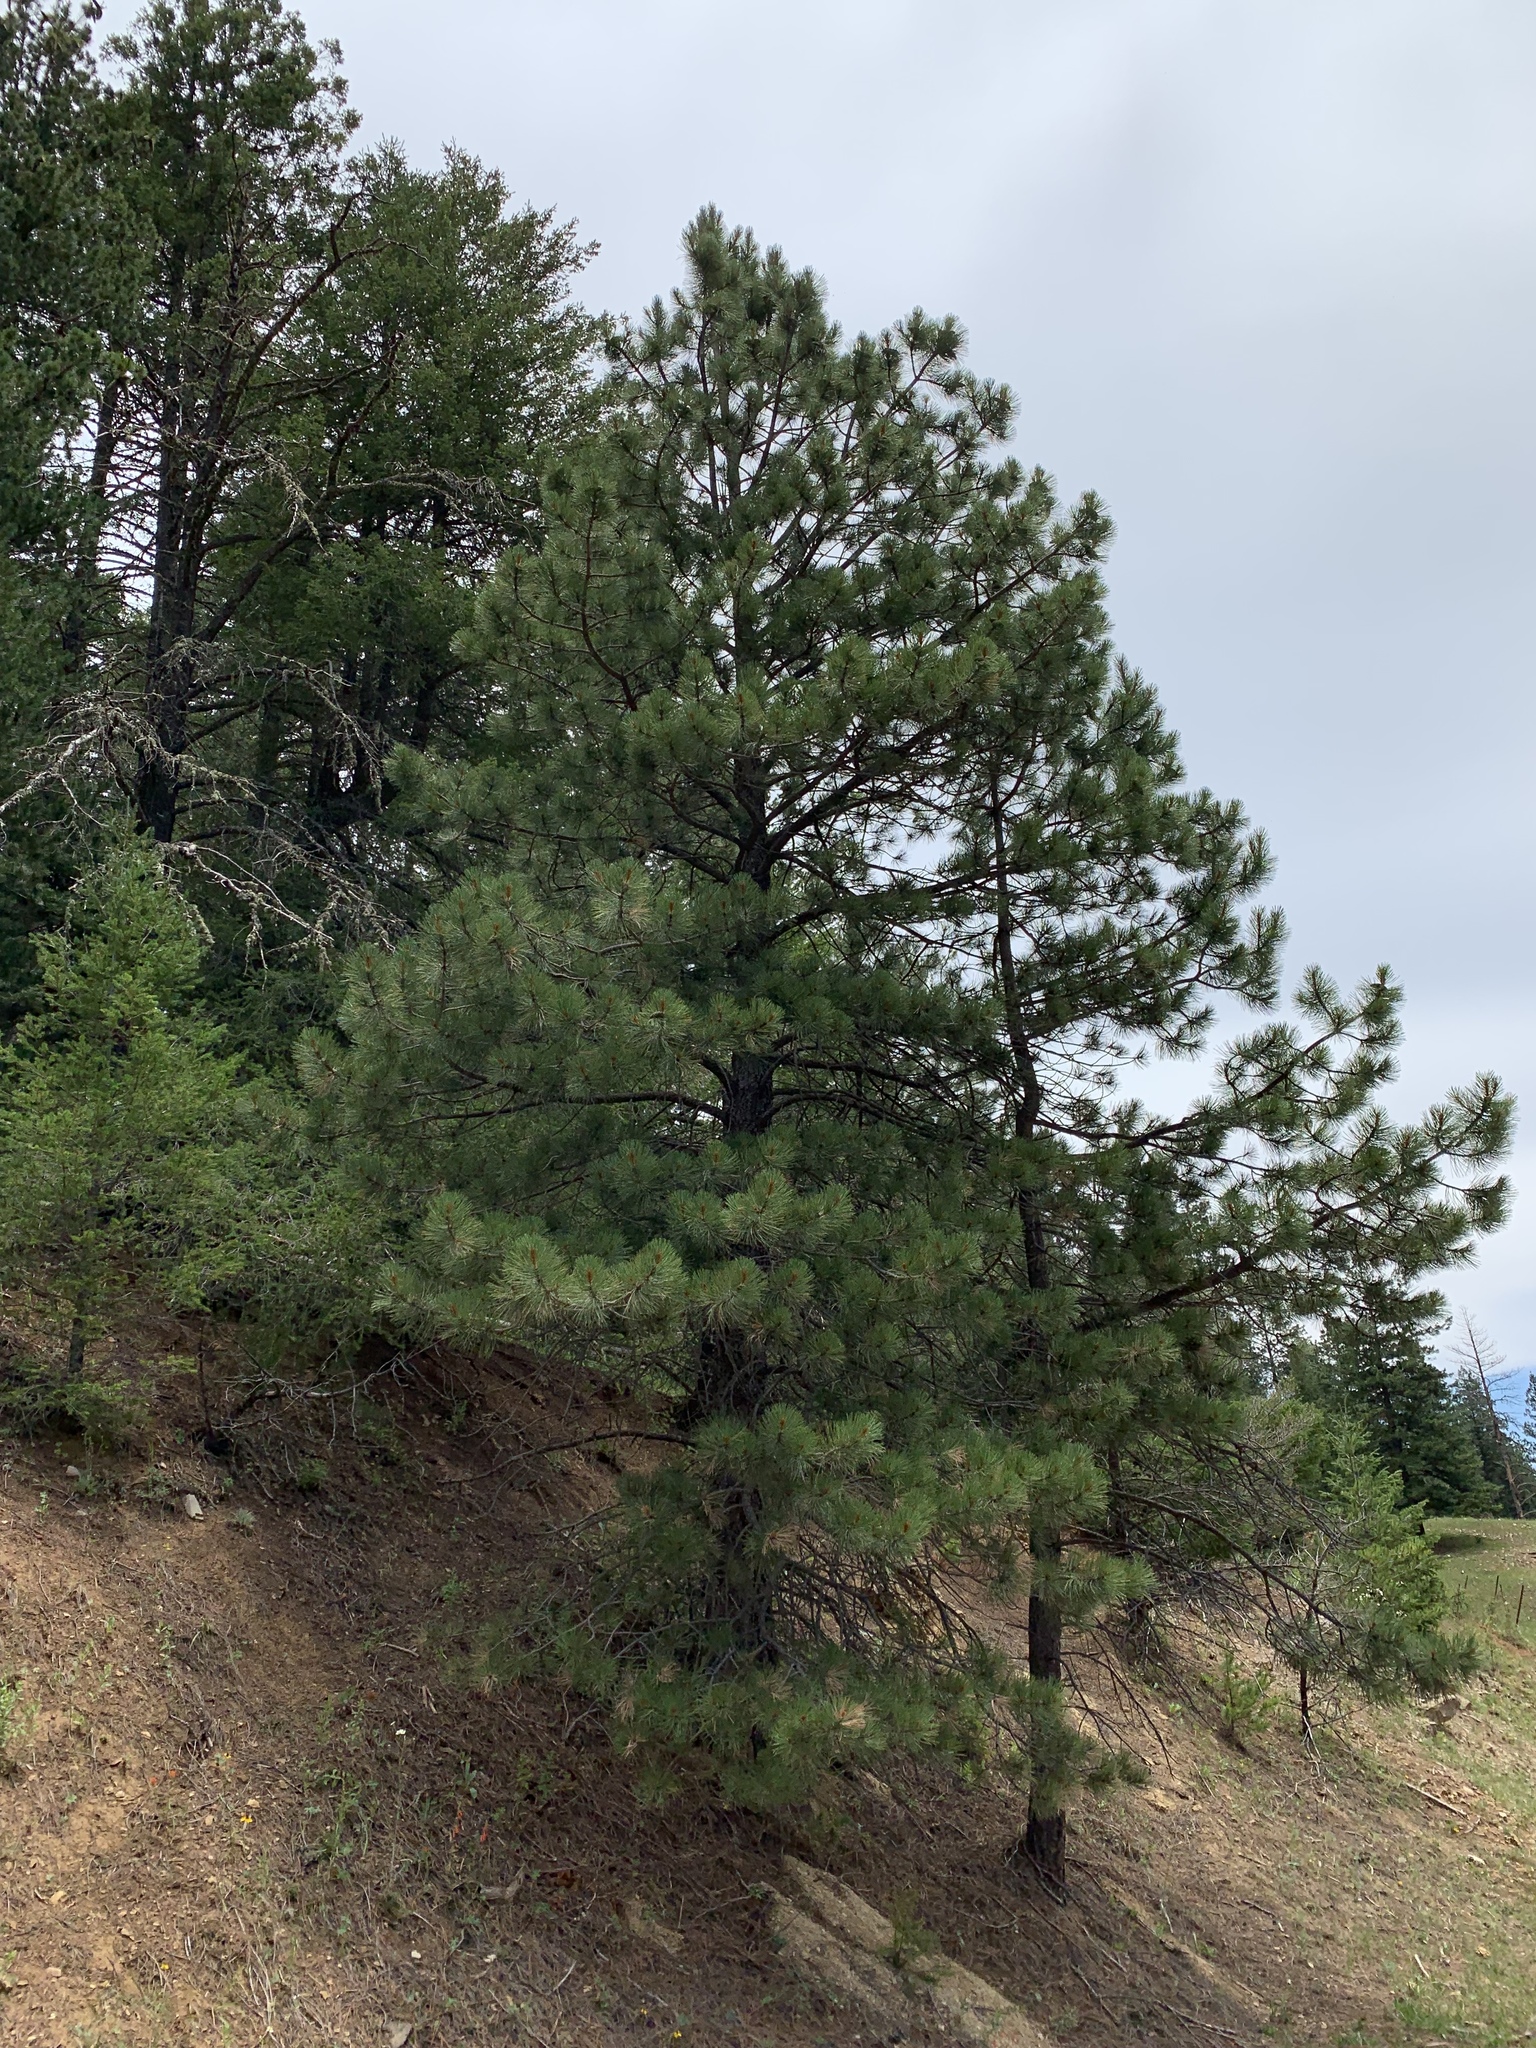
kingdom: Plantae
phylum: Tracheophyta
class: Pinopsida
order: Pinales
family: Pinaceae
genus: Pinus
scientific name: Pinus ponderosa
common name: Western yellow-pine
